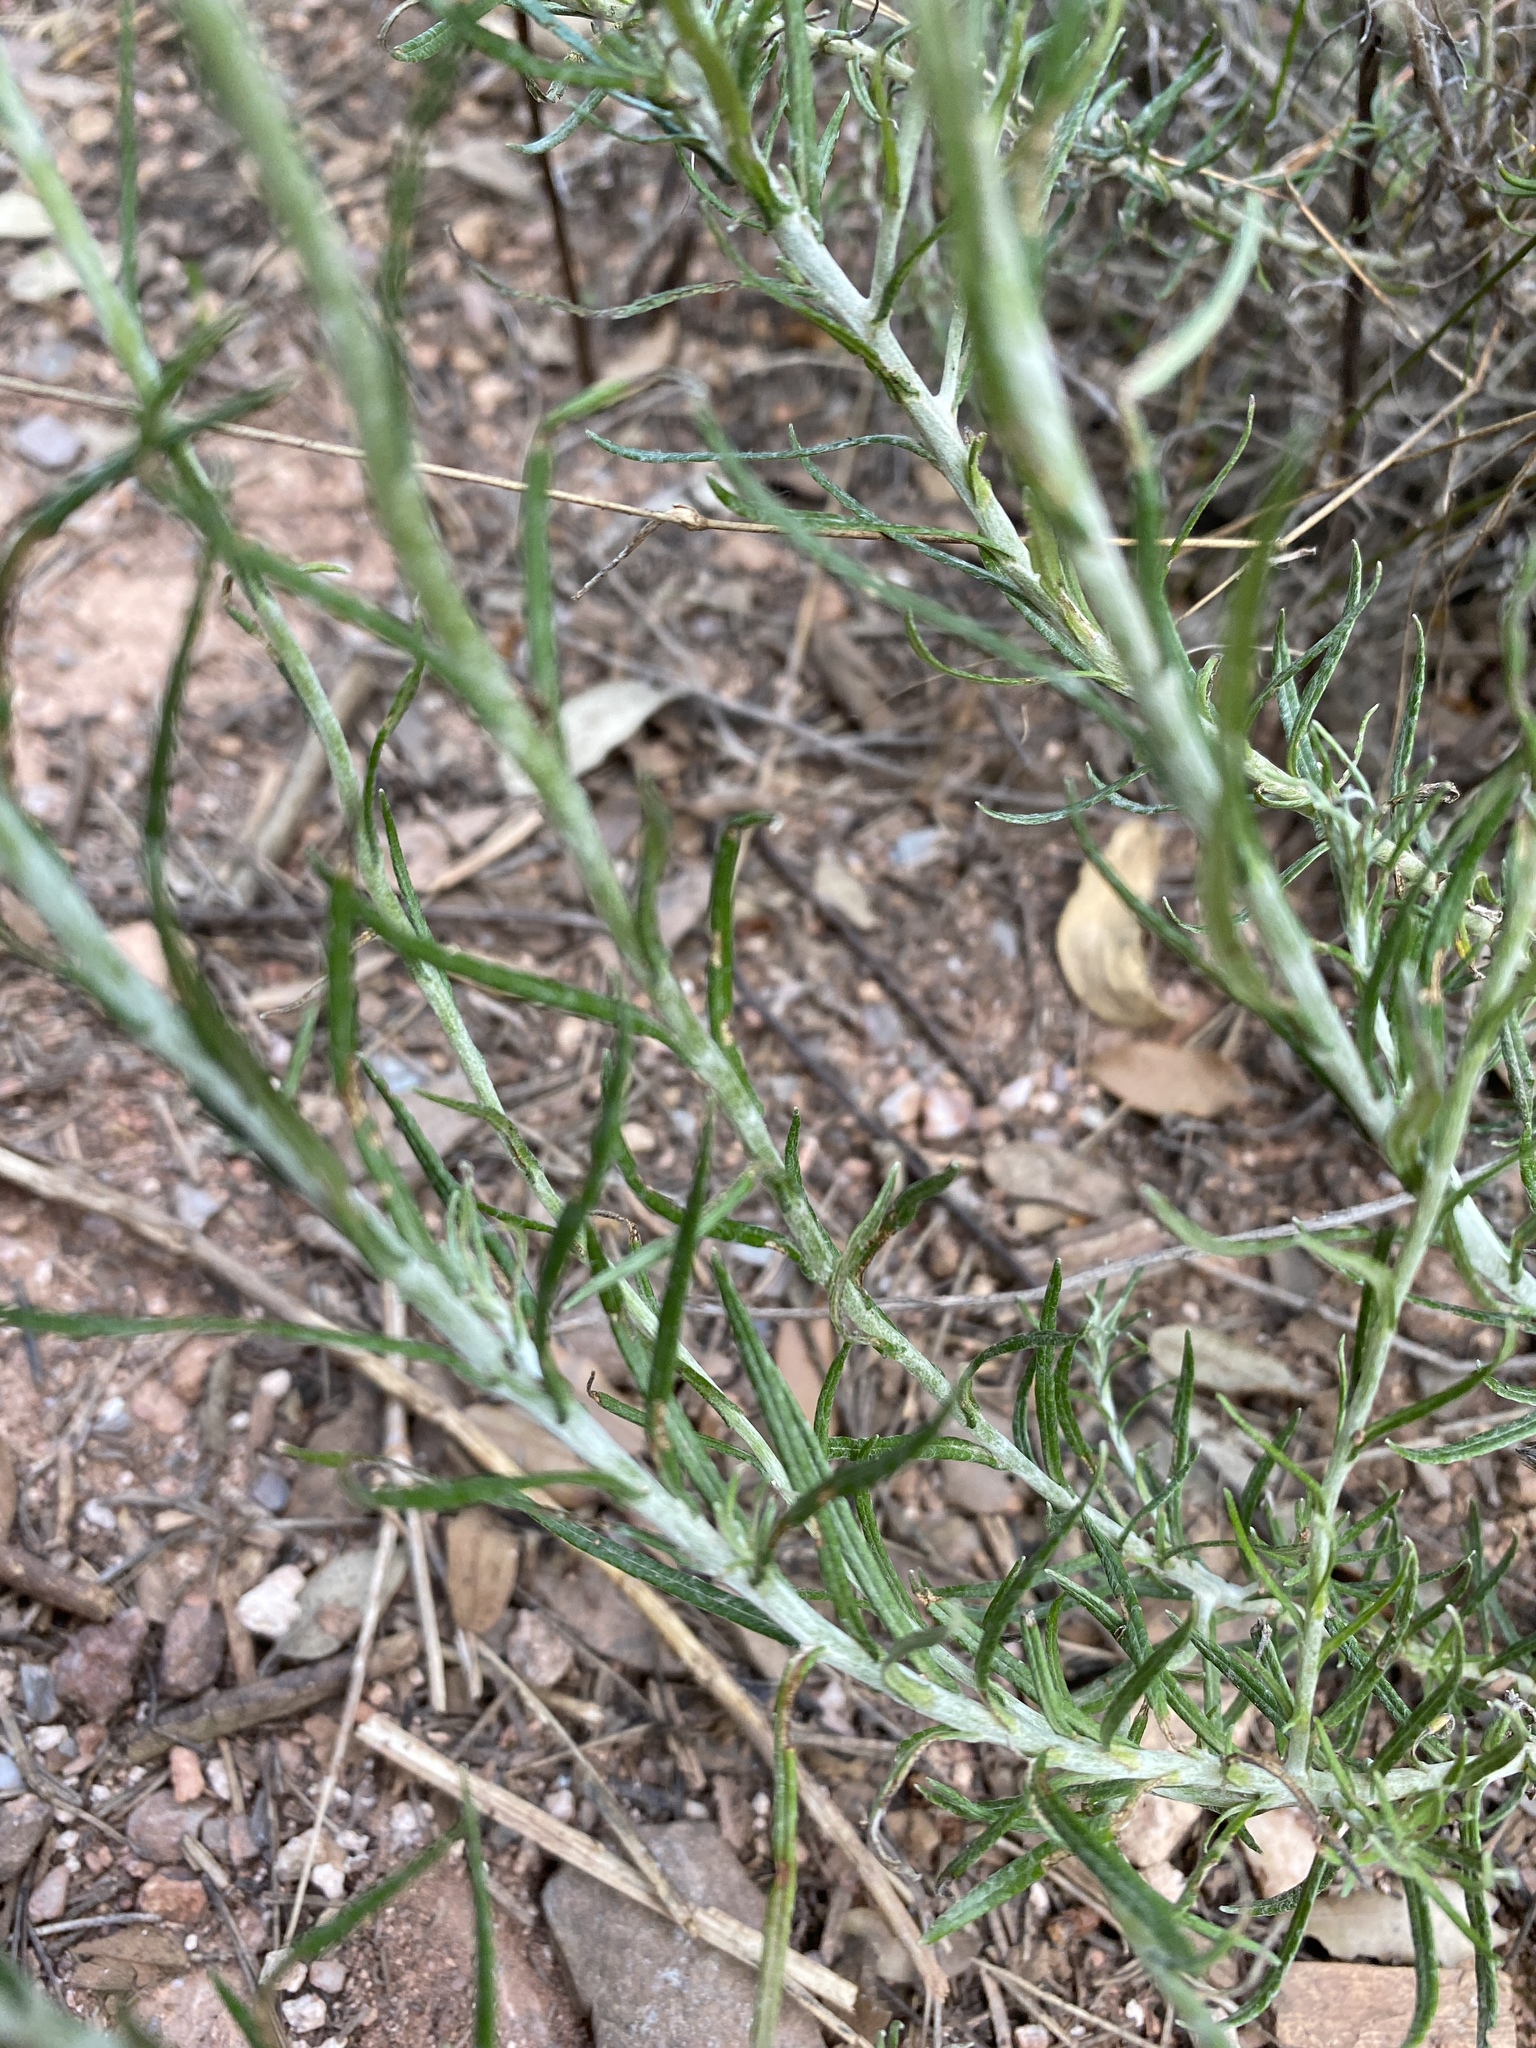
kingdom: Plantae
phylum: Tracheophyta
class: Magnoliopsida
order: Asterales
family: Asteraceae
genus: Helichrysum
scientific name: Helichrysum stoechas
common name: Goldilocks
